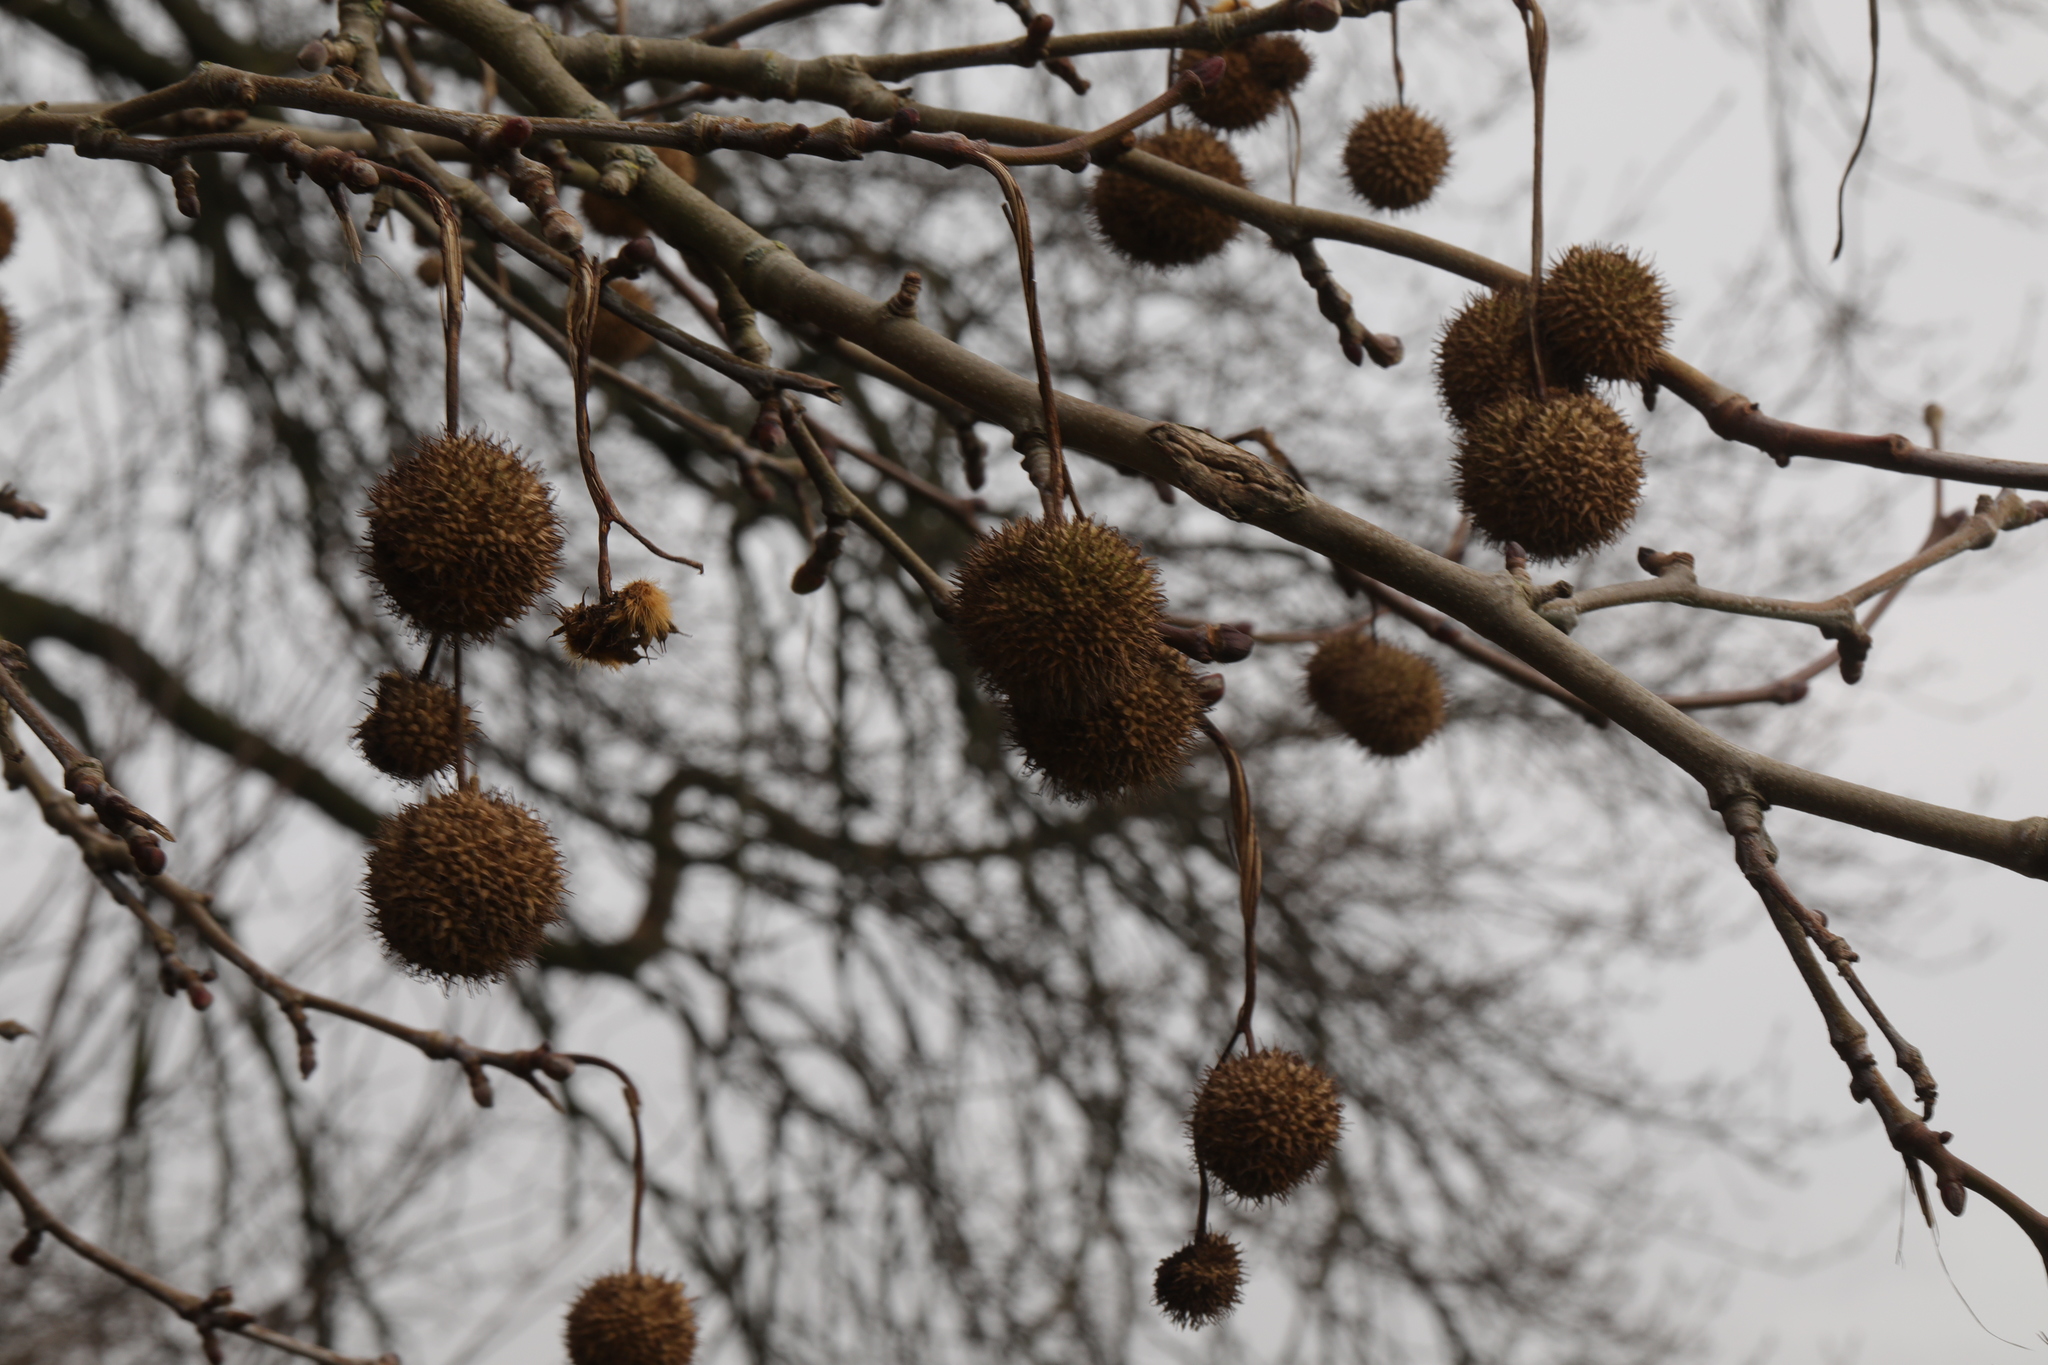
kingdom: Plantae
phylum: Tracheophyta
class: Magnoliopsida
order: Proteales
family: Platanaceae
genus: Platanus
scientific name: Platanus hispanica
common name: London plane
